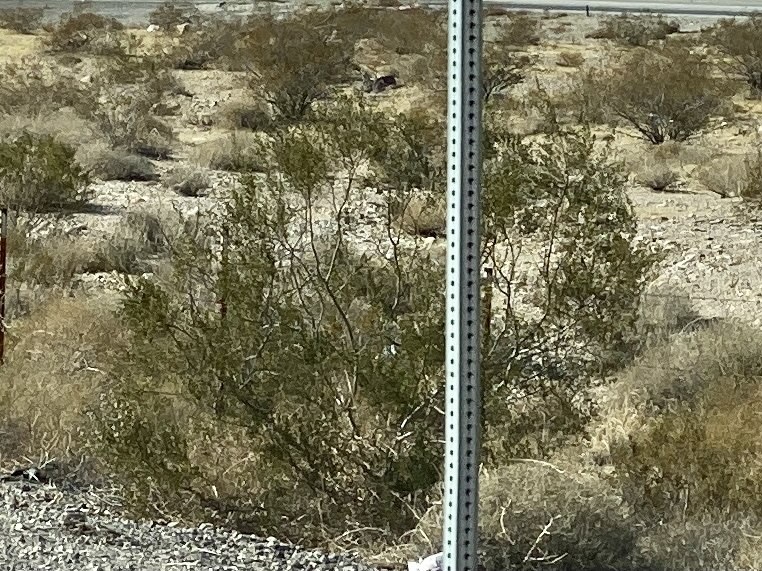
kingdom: Plantae
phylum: Tracheophyta
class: Magnoliopsida
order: Zygophyllales
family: Zygophyllaceae
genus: Larrea
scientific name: Larrea tridentata
